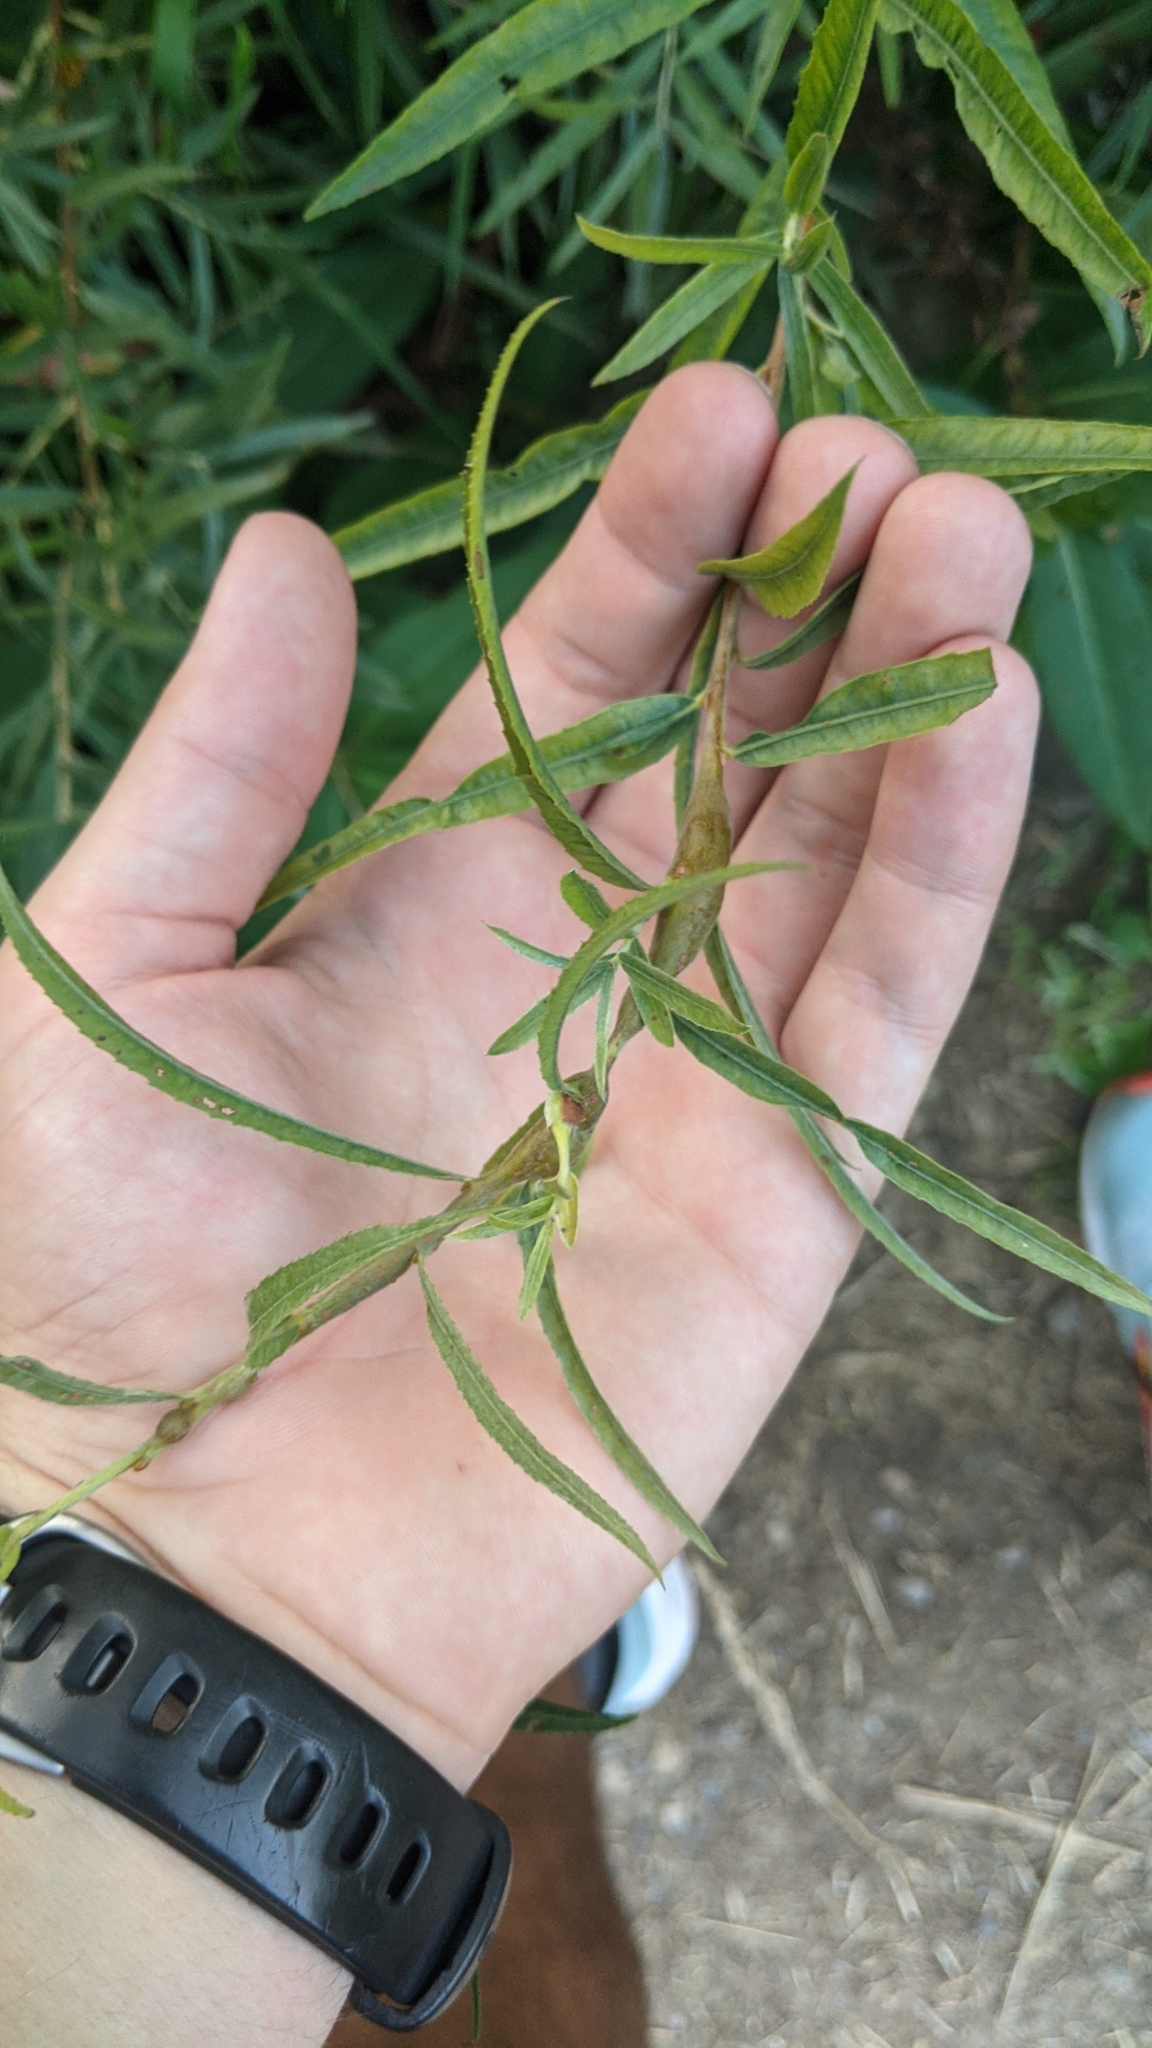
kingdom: Plantae
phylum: Tracheophyta
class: Magnoliopsida
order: Malpighiales
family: Salicaceae
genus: Salix
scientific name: Salix interior
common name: Sandbar willow
